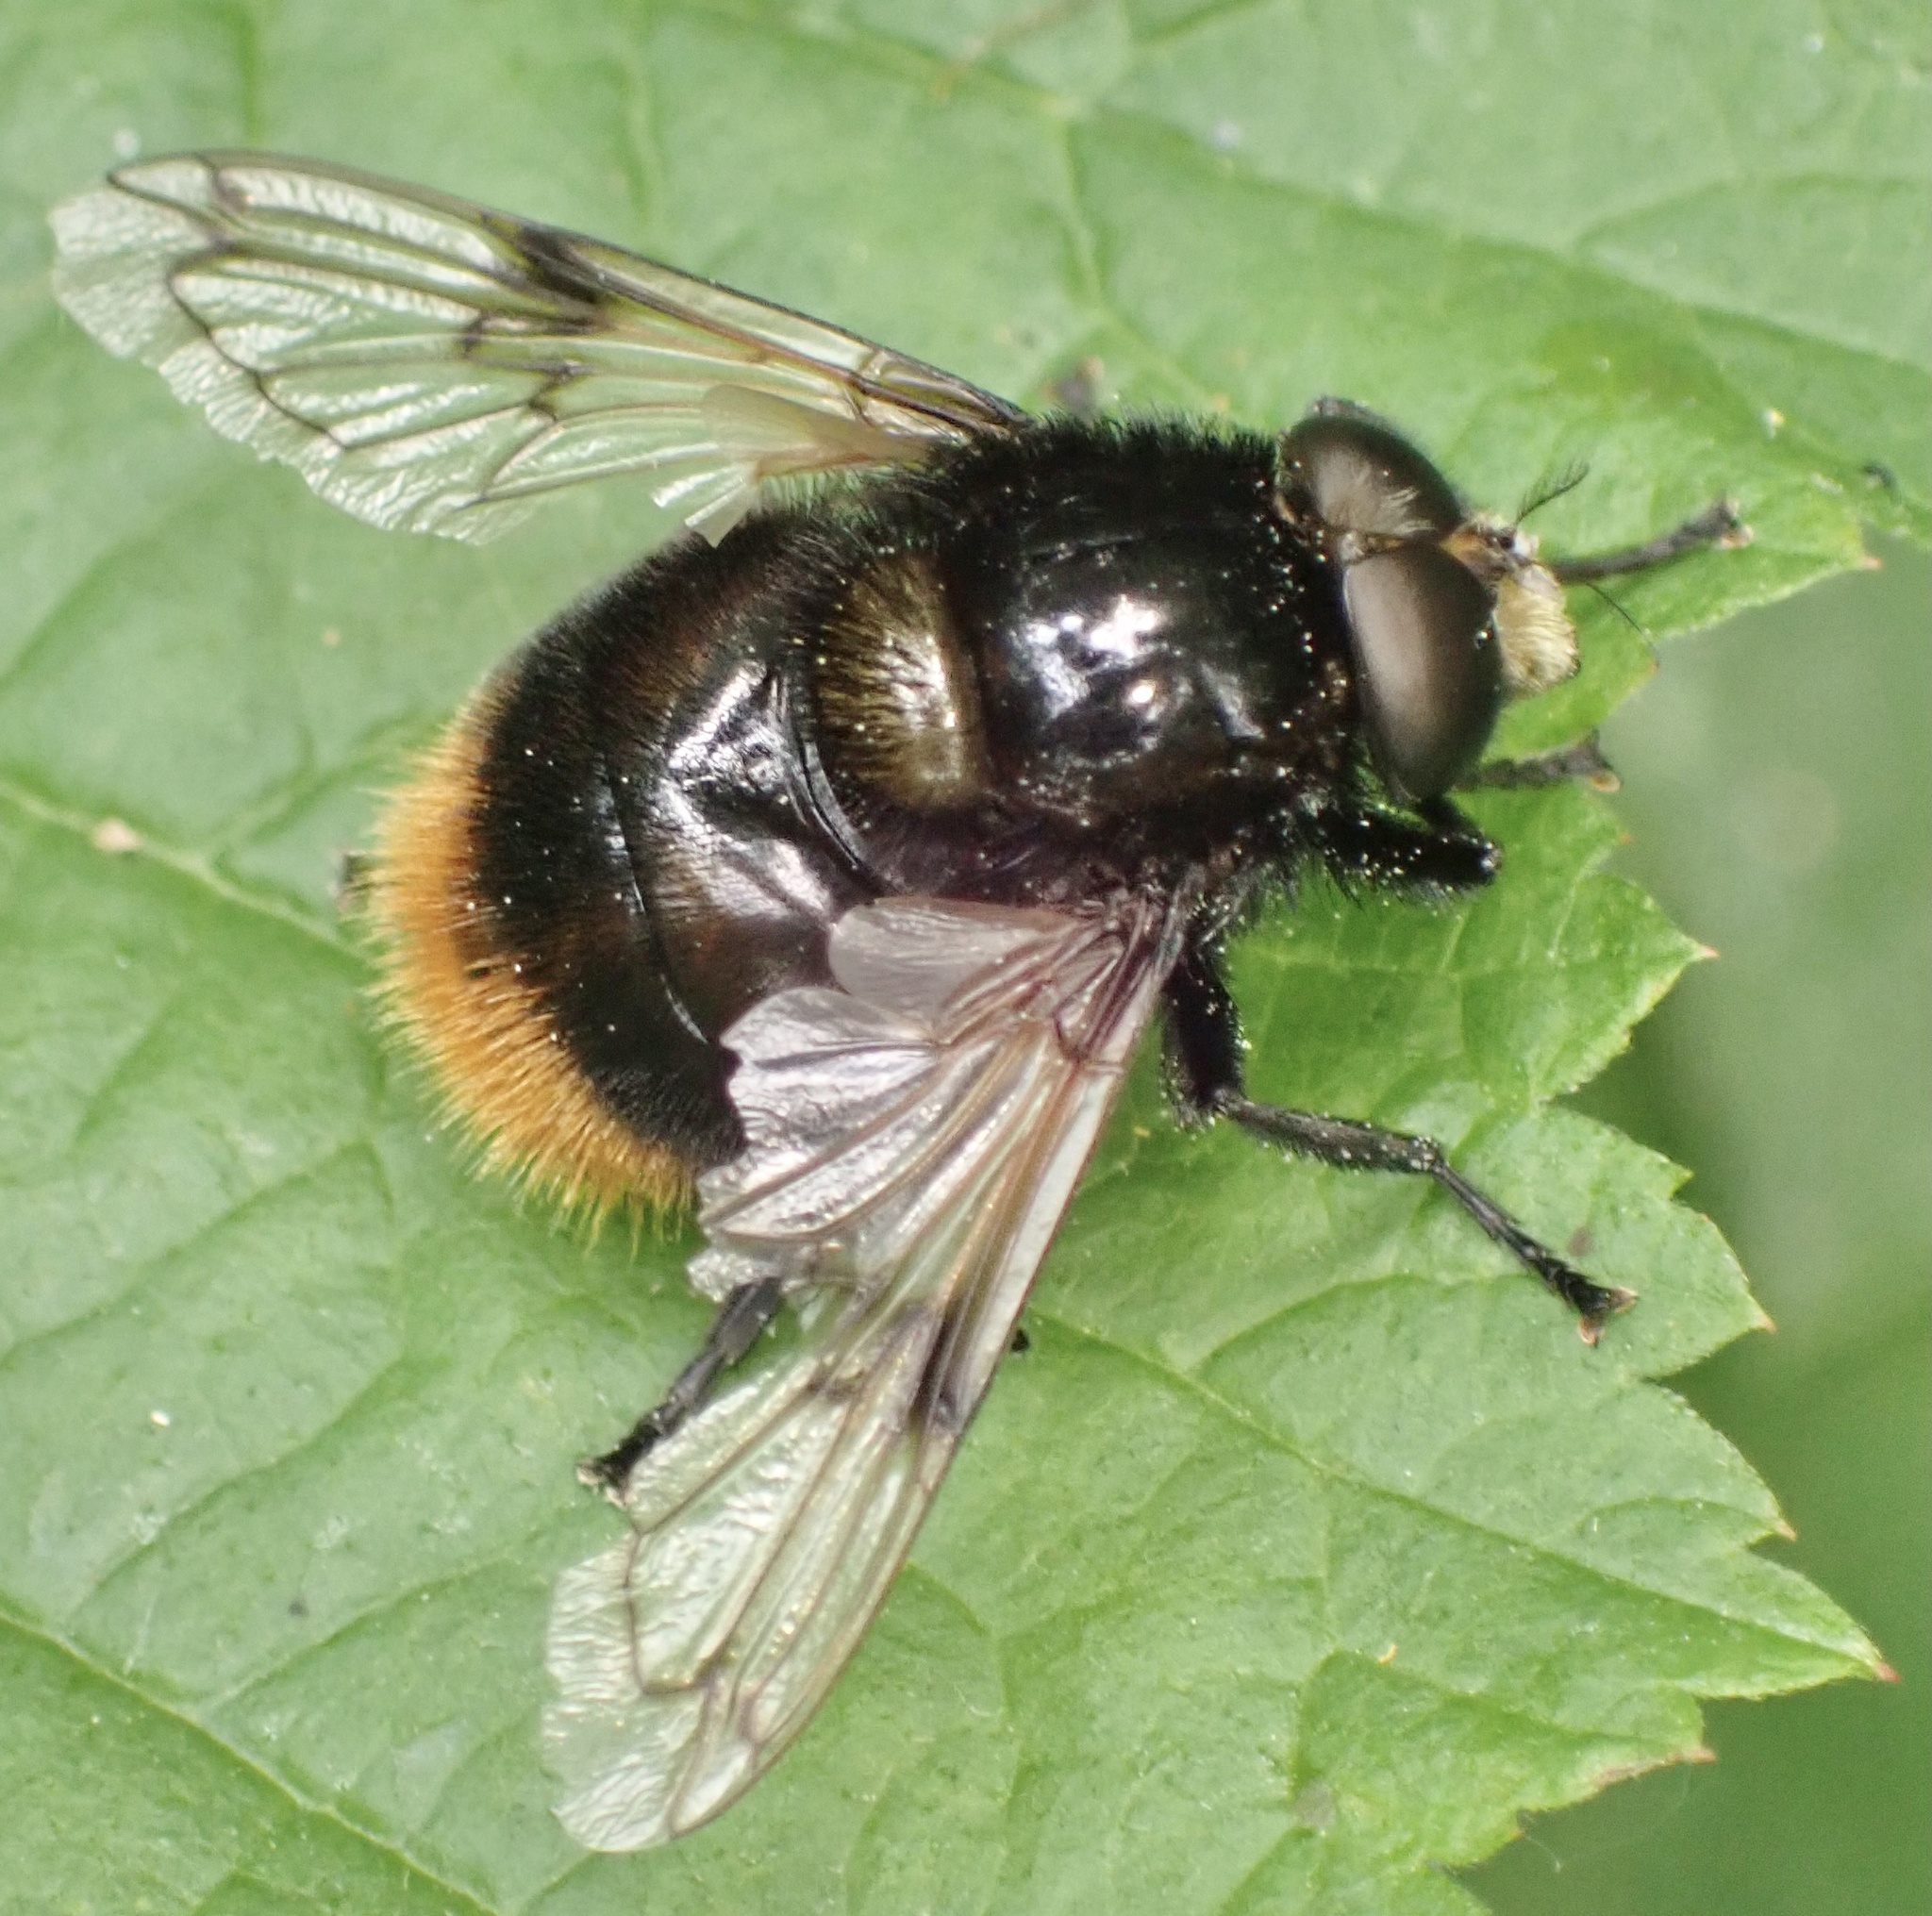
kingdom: Animalia
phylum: Arthropoda
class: Insecta
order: Diptera
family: Syrphidae
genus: Volucella
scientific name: Volucella bombylans
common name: Bumble bee hover fly
